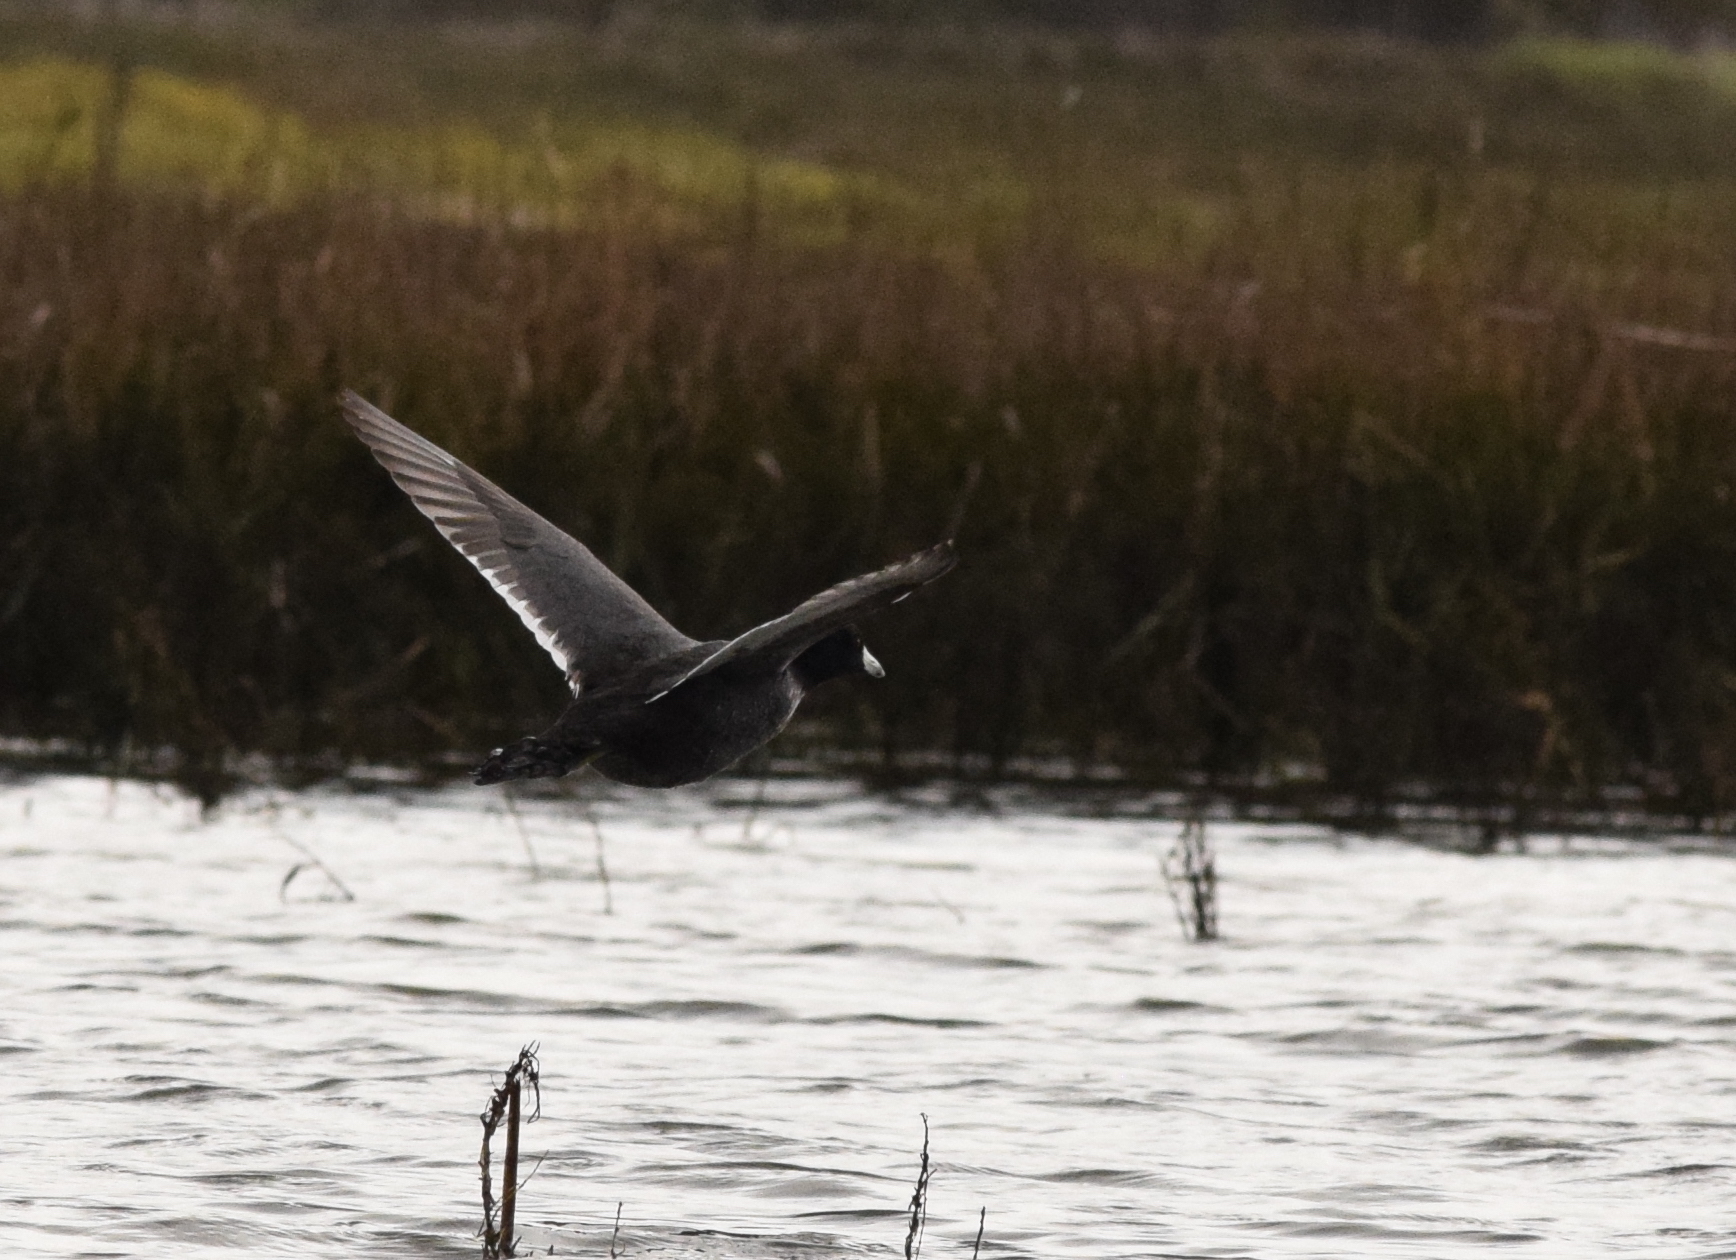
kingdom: Animalia
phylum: Chordata
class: Aves
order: Gruiformes
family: Rallidae
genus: Fulica
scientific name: Fulica americana
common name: American coot
